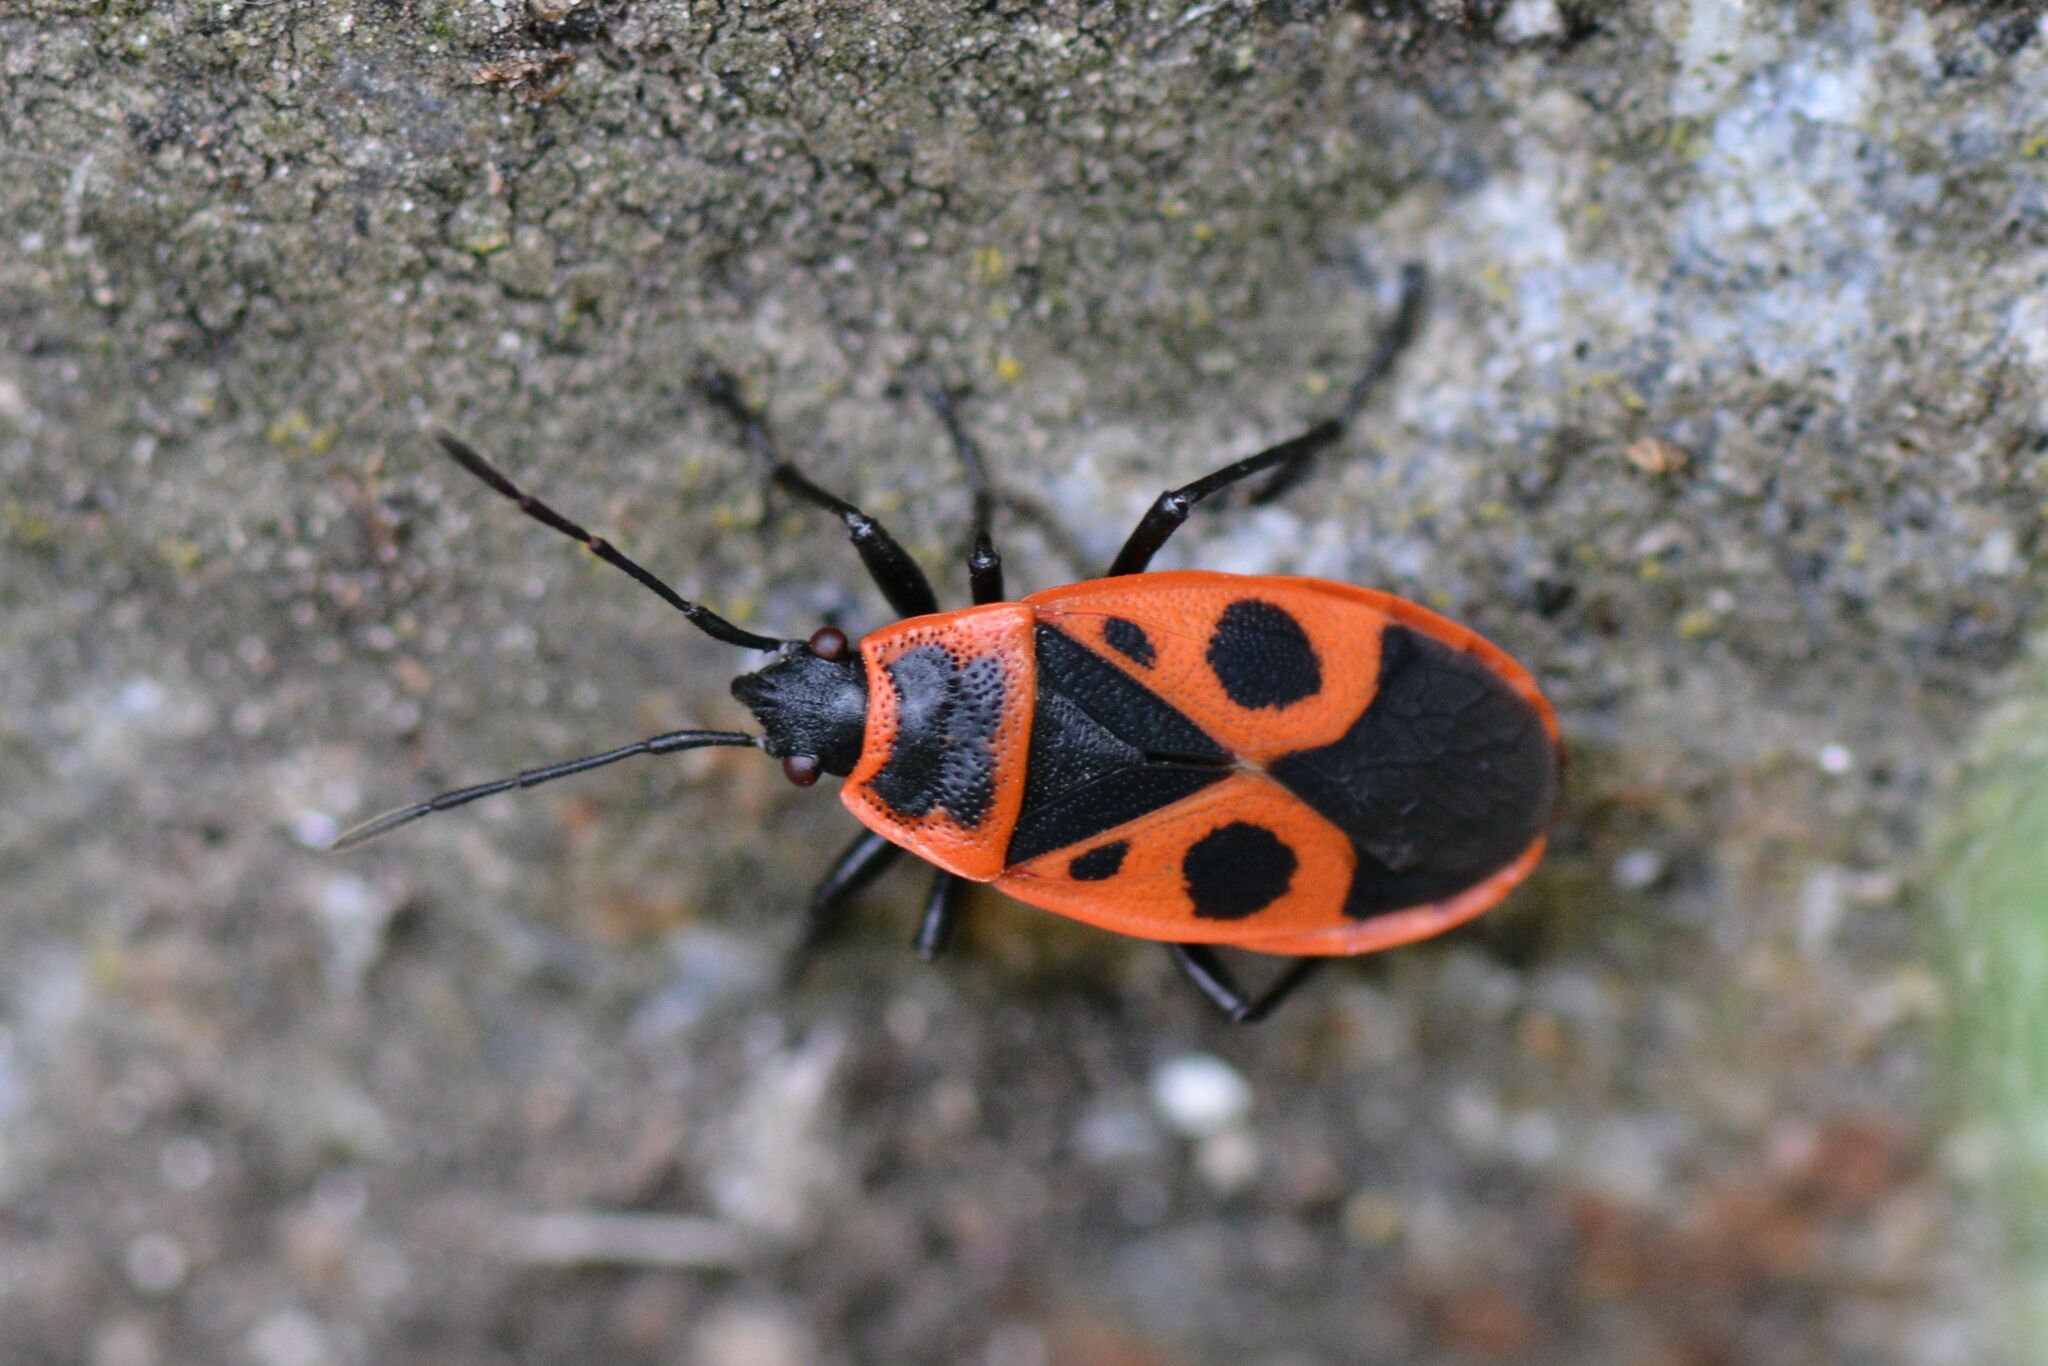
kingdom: Animalia
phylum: Arthropoda
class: Insecta
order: Hemiptera
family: Pyrrhocoridae
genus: Pyrrhocoris
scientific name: Pyrrhocoris apterus
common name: Firebug
